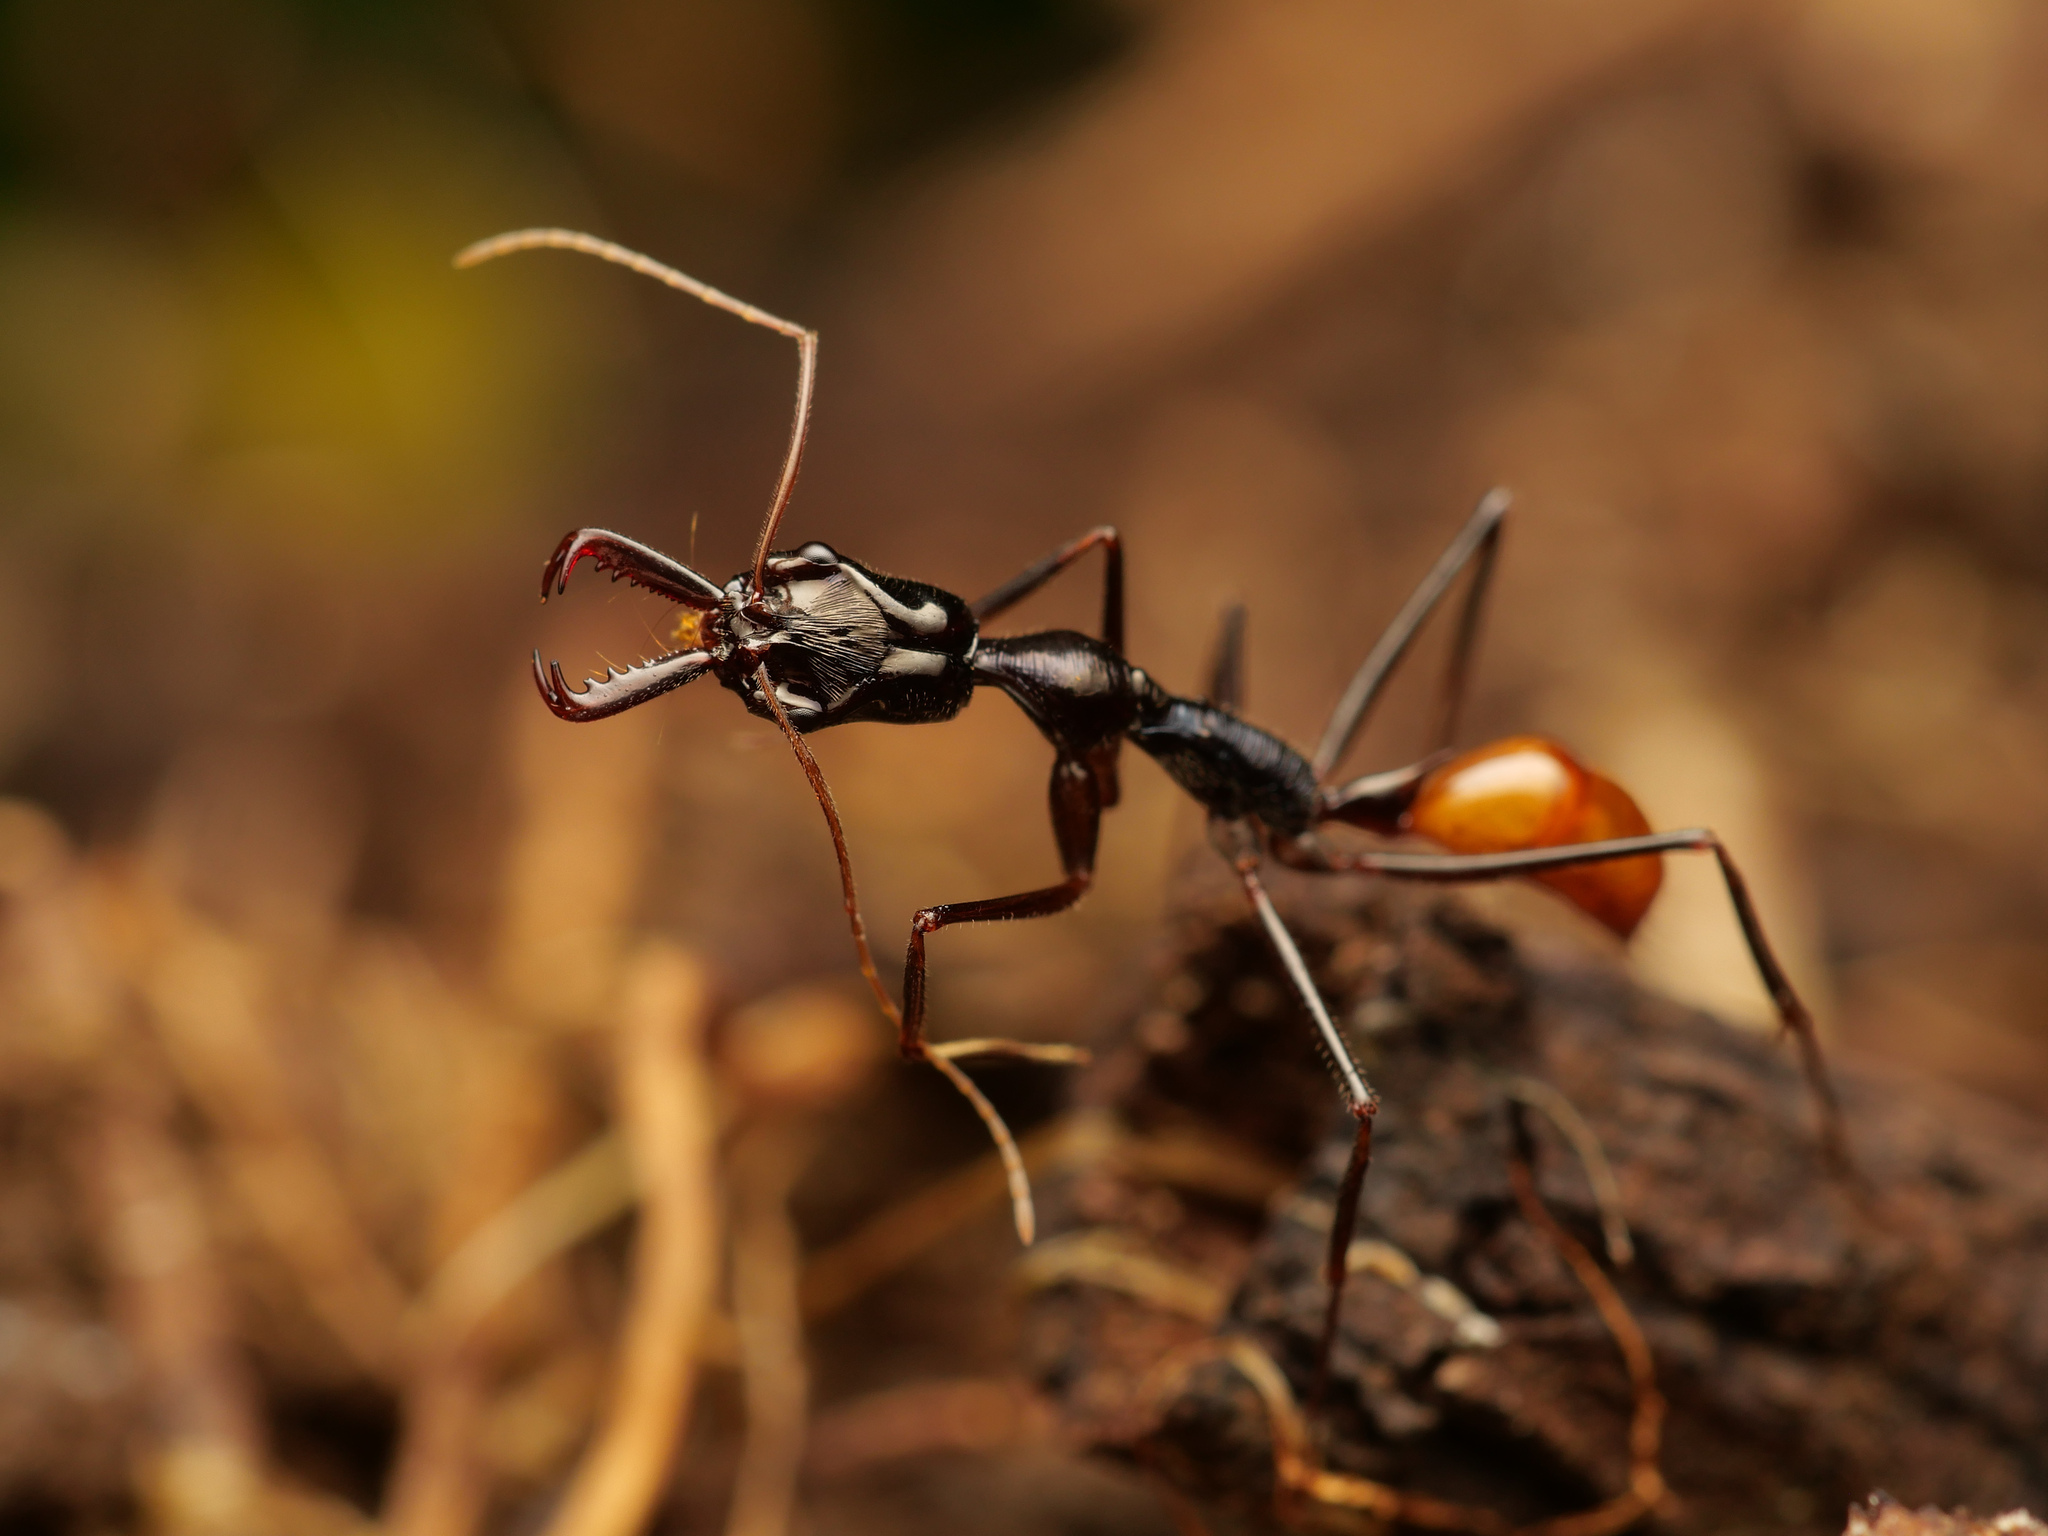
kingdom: Animalia
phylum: Arthropoda
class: Insecta
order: Hymenoptera
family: Formicidae
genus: Odontomachus
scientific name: Odontomachus tyrannicus
